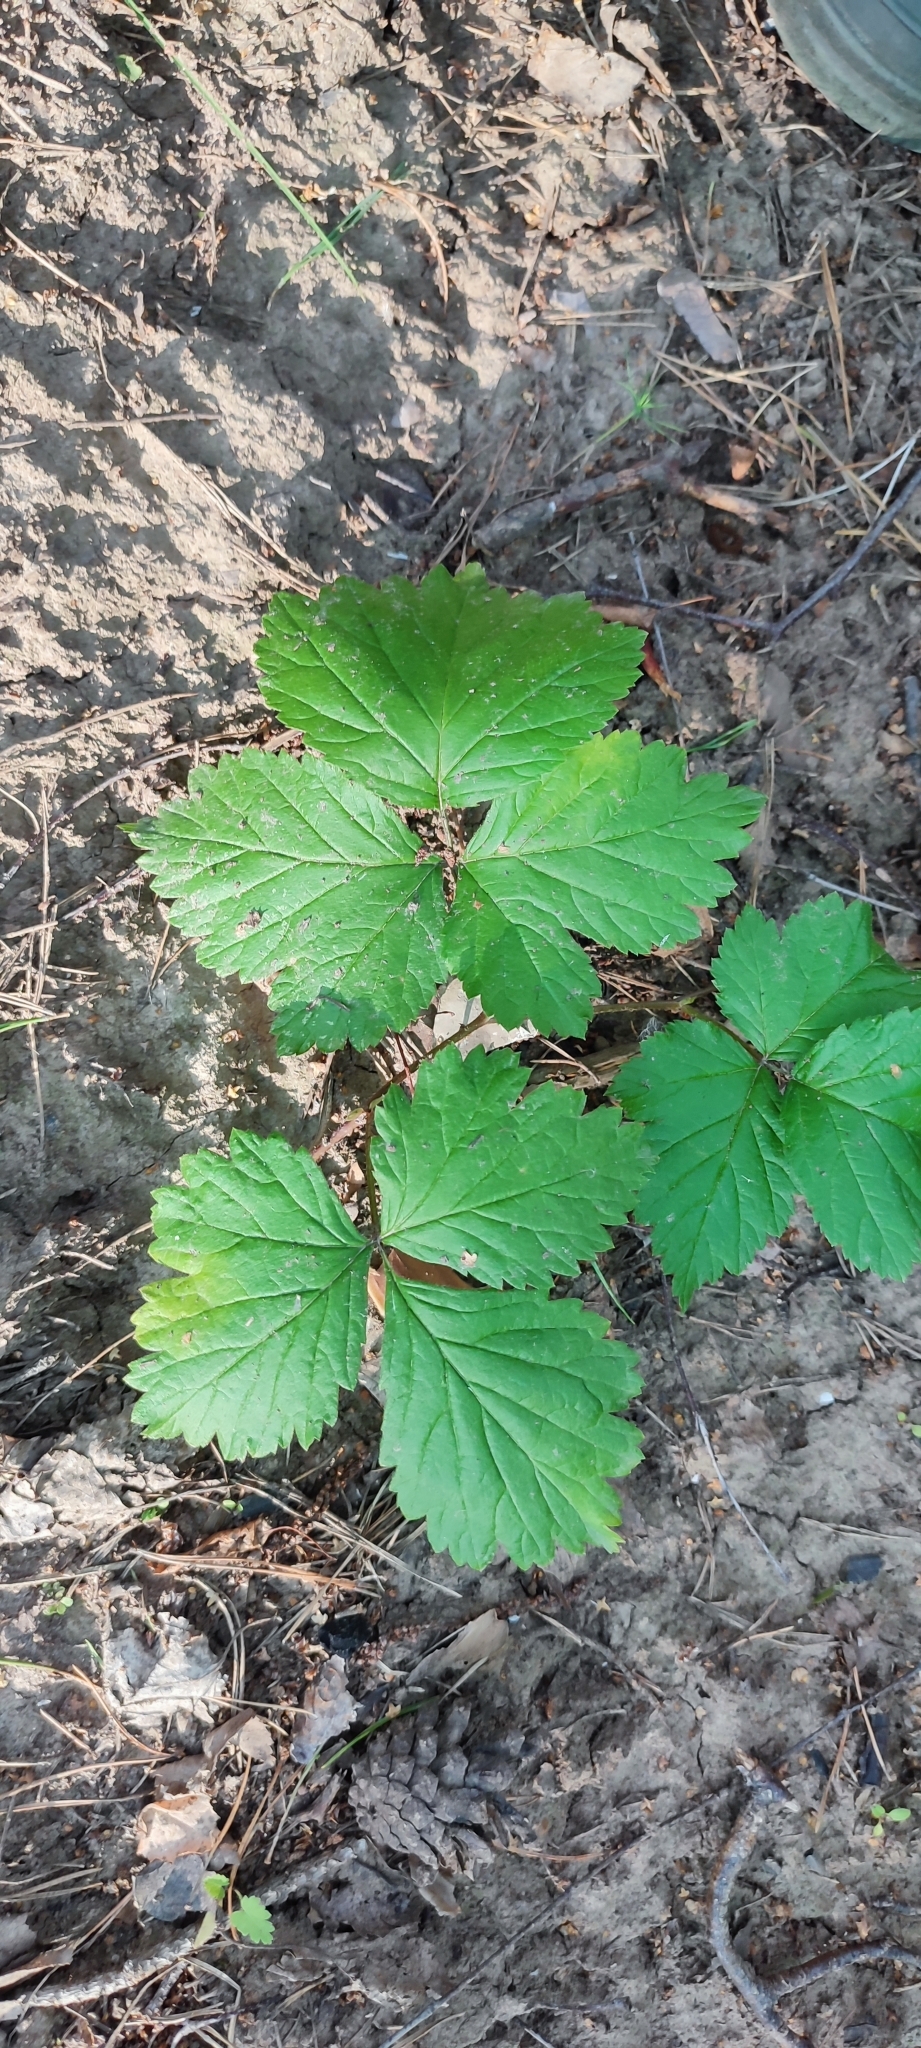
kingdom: Plantae
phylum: Tracheophyta
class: Magnoliopsida
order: Rosales
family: Rosaceae
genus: Rubus
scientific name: Rubus saxatilis
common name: Stone bramble
